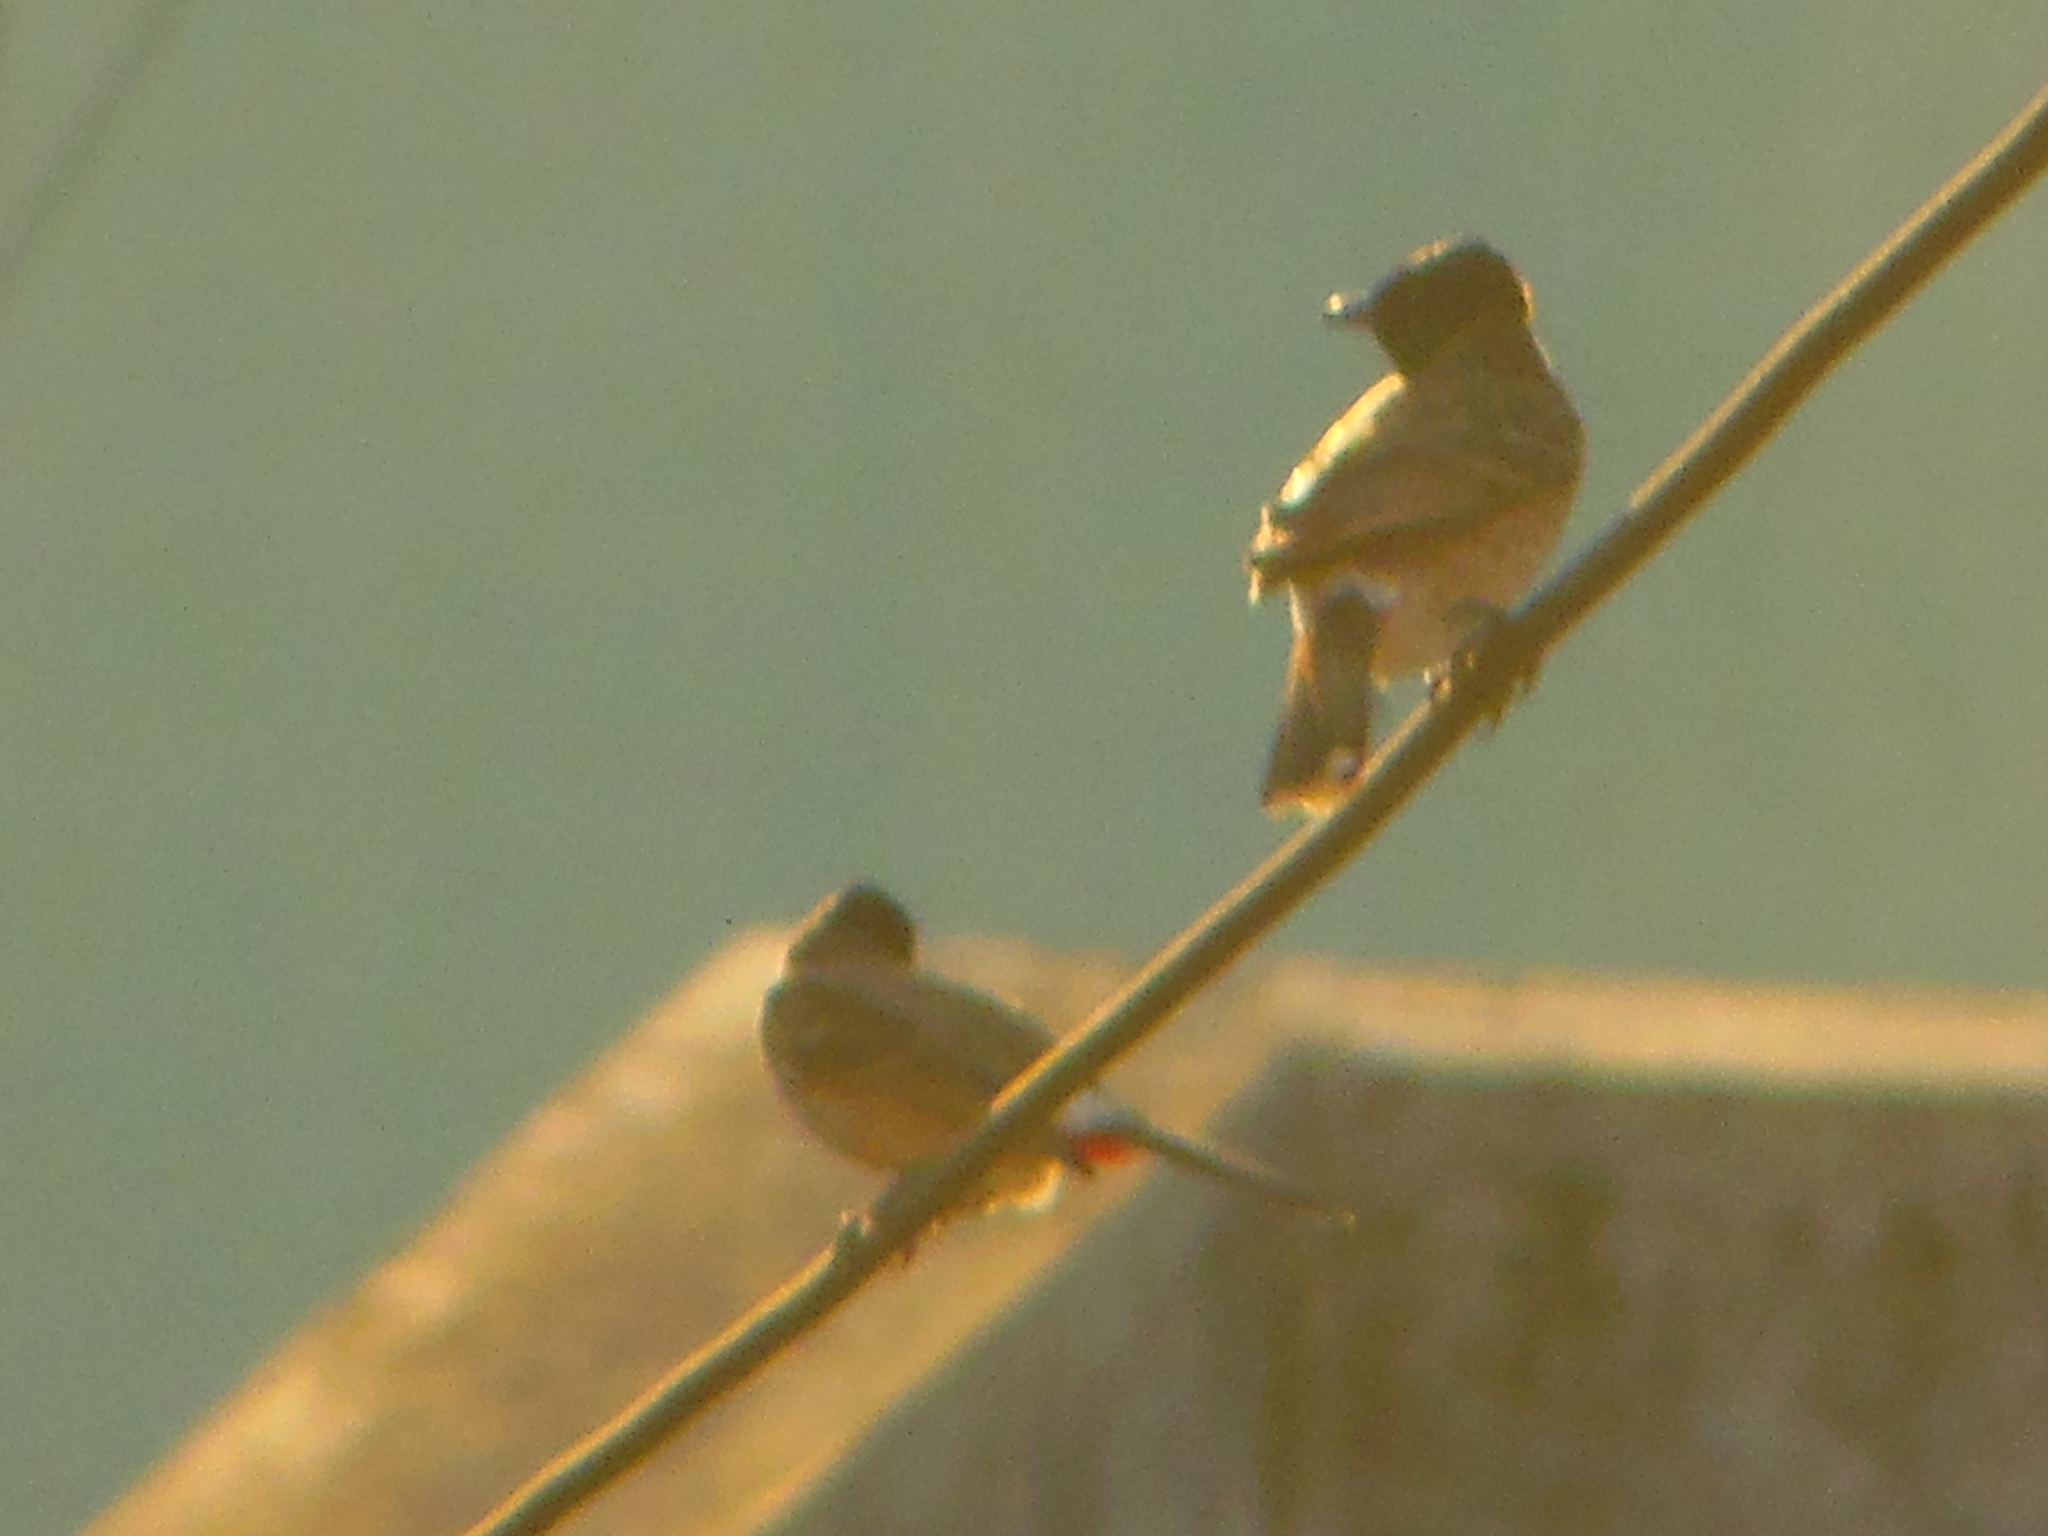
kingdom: Animalia
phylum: Chordata
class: Aves
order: Passeriformes
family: Pycnonotidae
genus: Pycnonotus
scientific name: Pycnonotus cafer
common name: Red-vented bulbul
